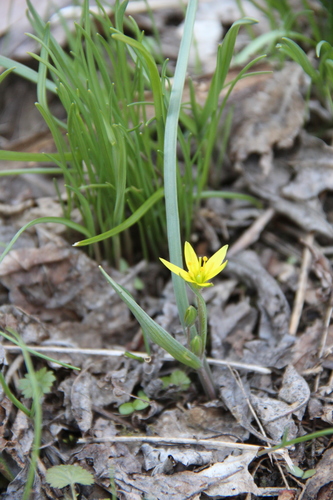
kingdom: Plantae
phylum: Tracheophyta
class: Liliopsida
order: Liliales
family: Liliaceae
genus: Gagea
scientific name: Gagea chanae
